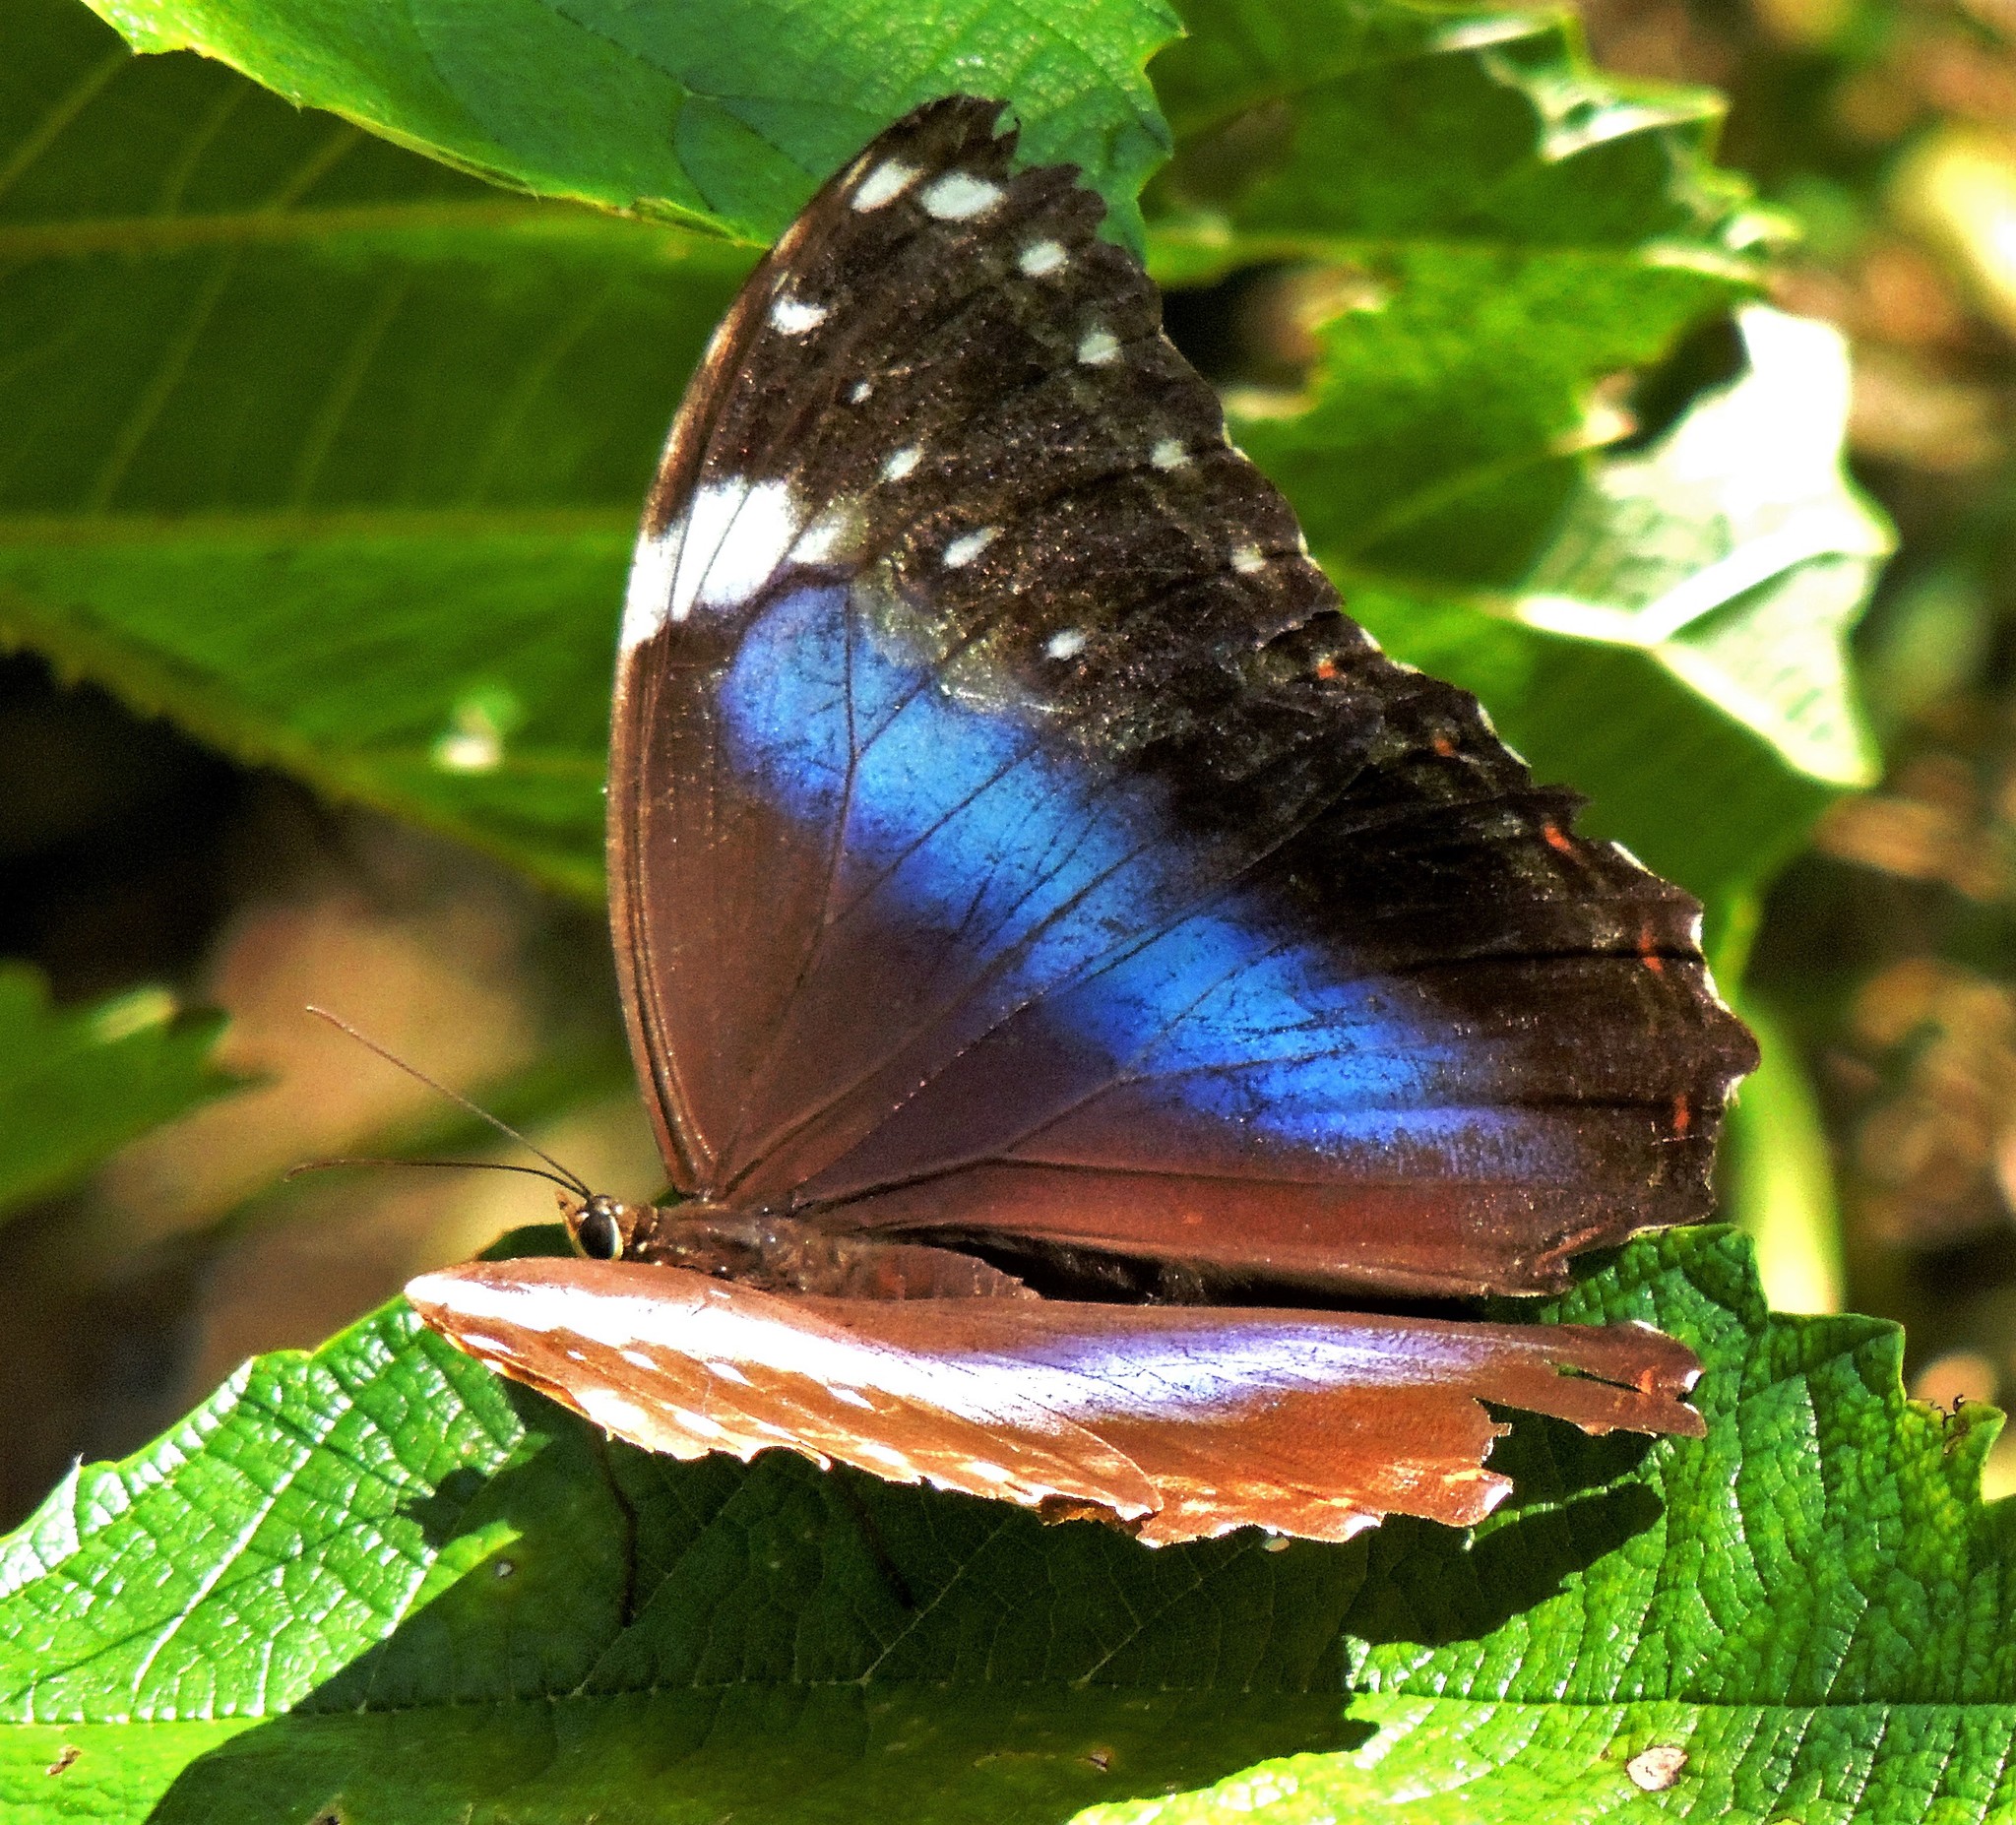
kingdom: Animalia
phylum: Arthropoda
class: Insecta
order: Lepidoptera
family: Nymphalidae
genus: Morpho
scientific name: Morpho helenor
